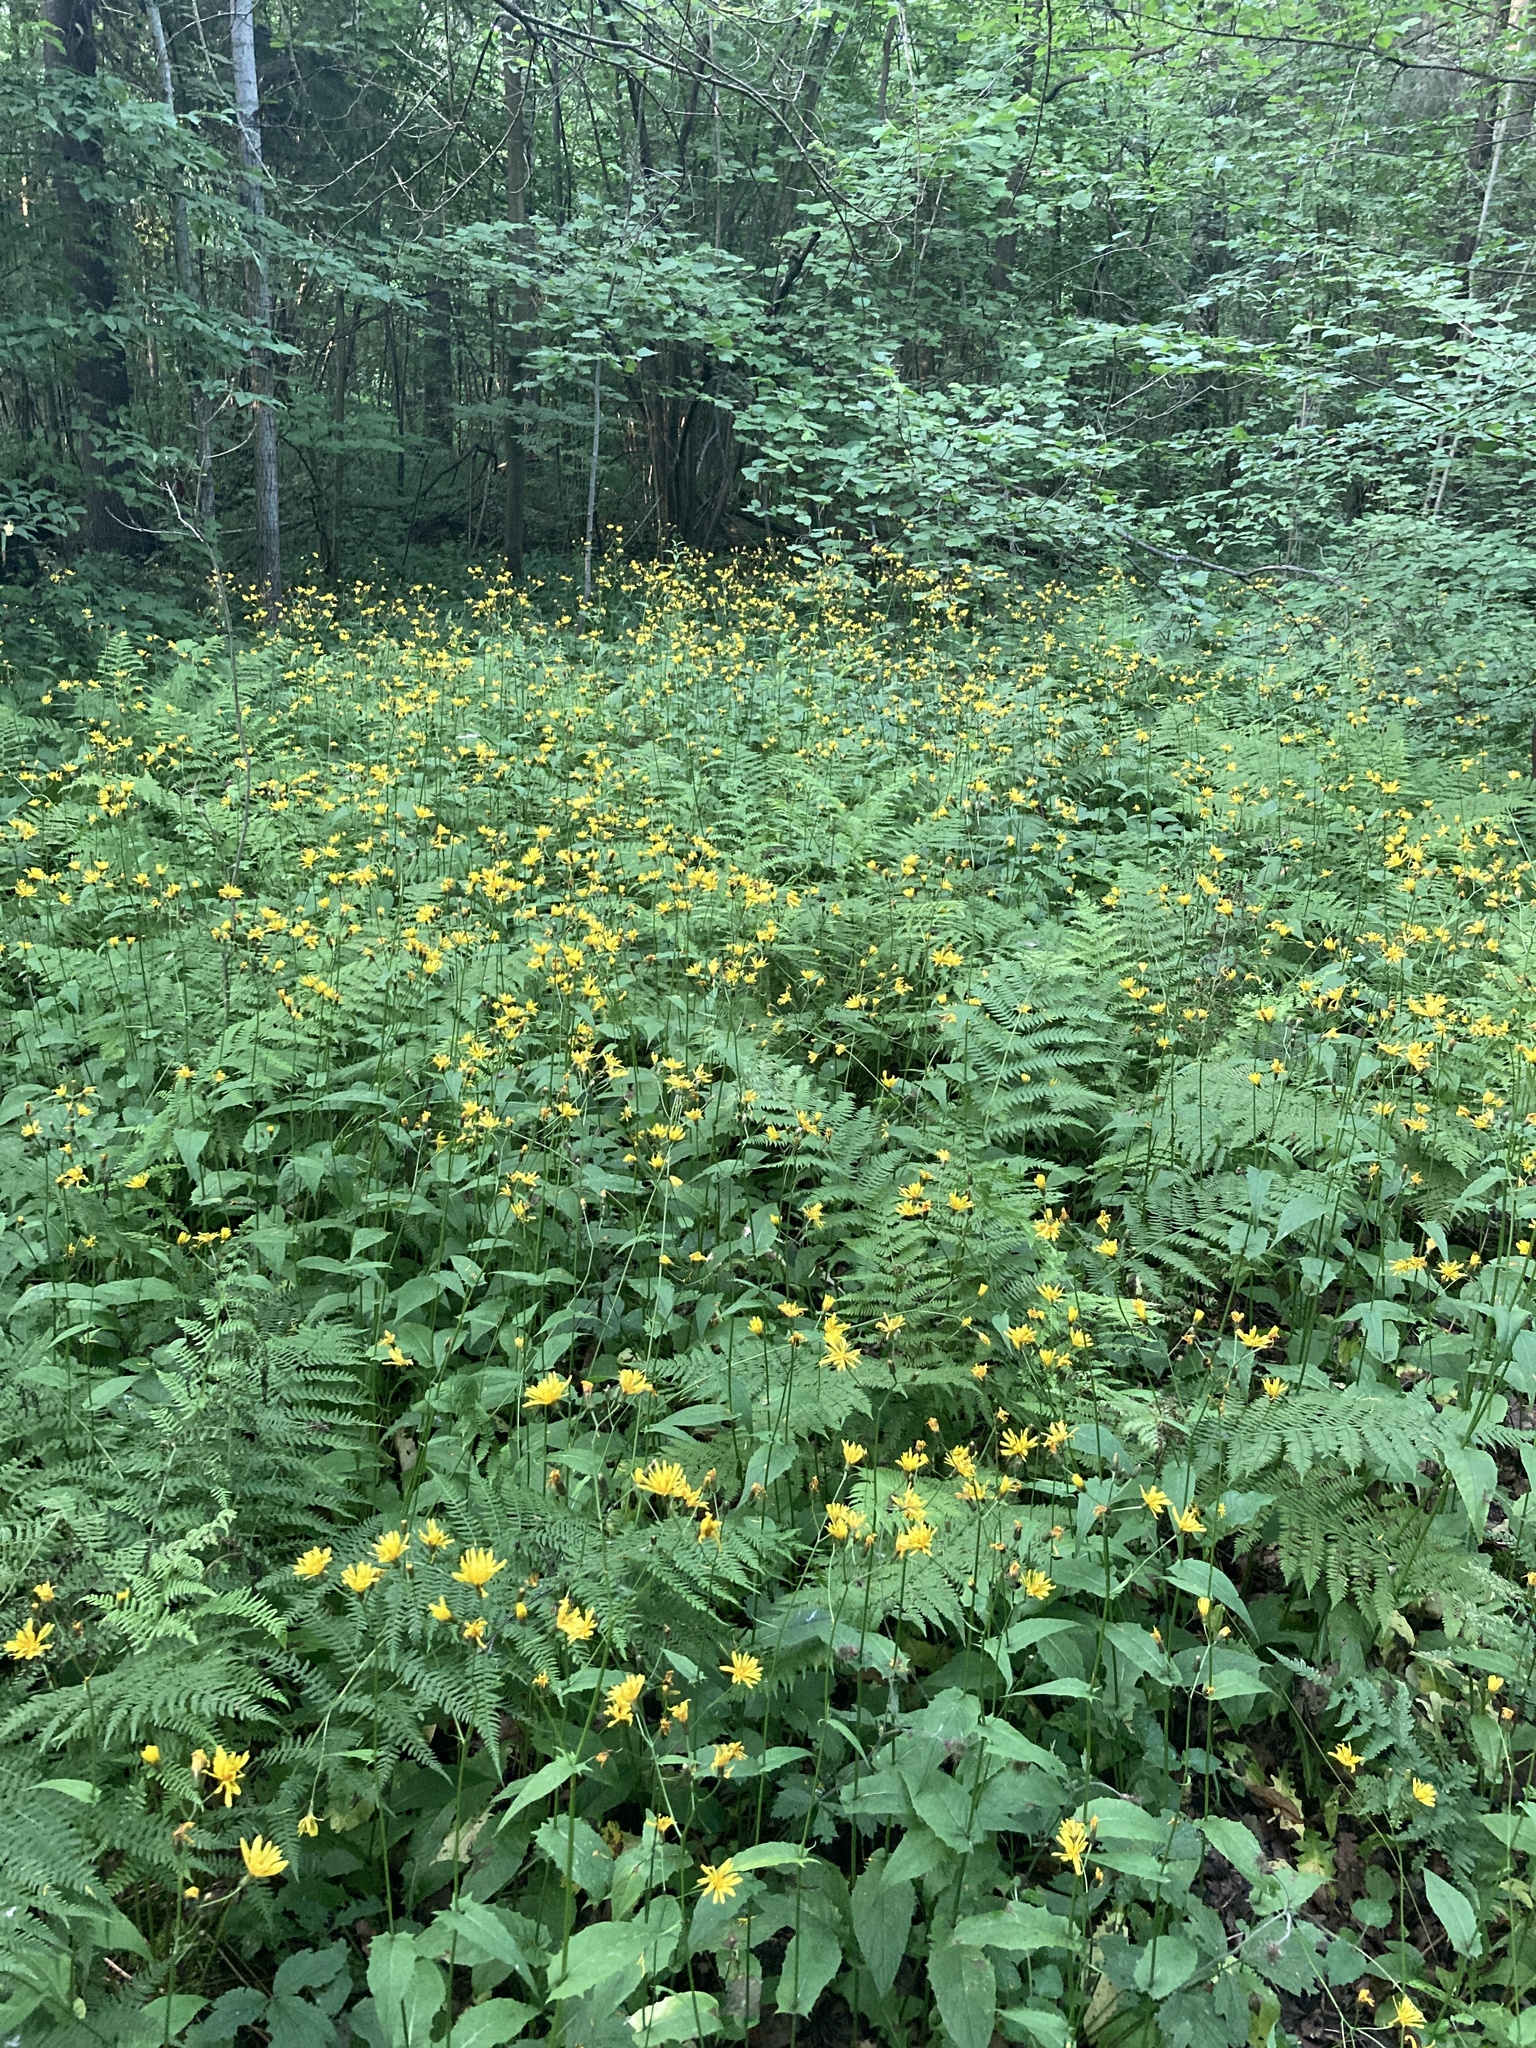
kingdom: Plantae
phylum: Tracheophyta
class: Magnoliopsida
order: Asterales
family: Asteraceae
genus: Crepis
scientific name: Crepis paludosa
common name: Marsh hawk's-beard
